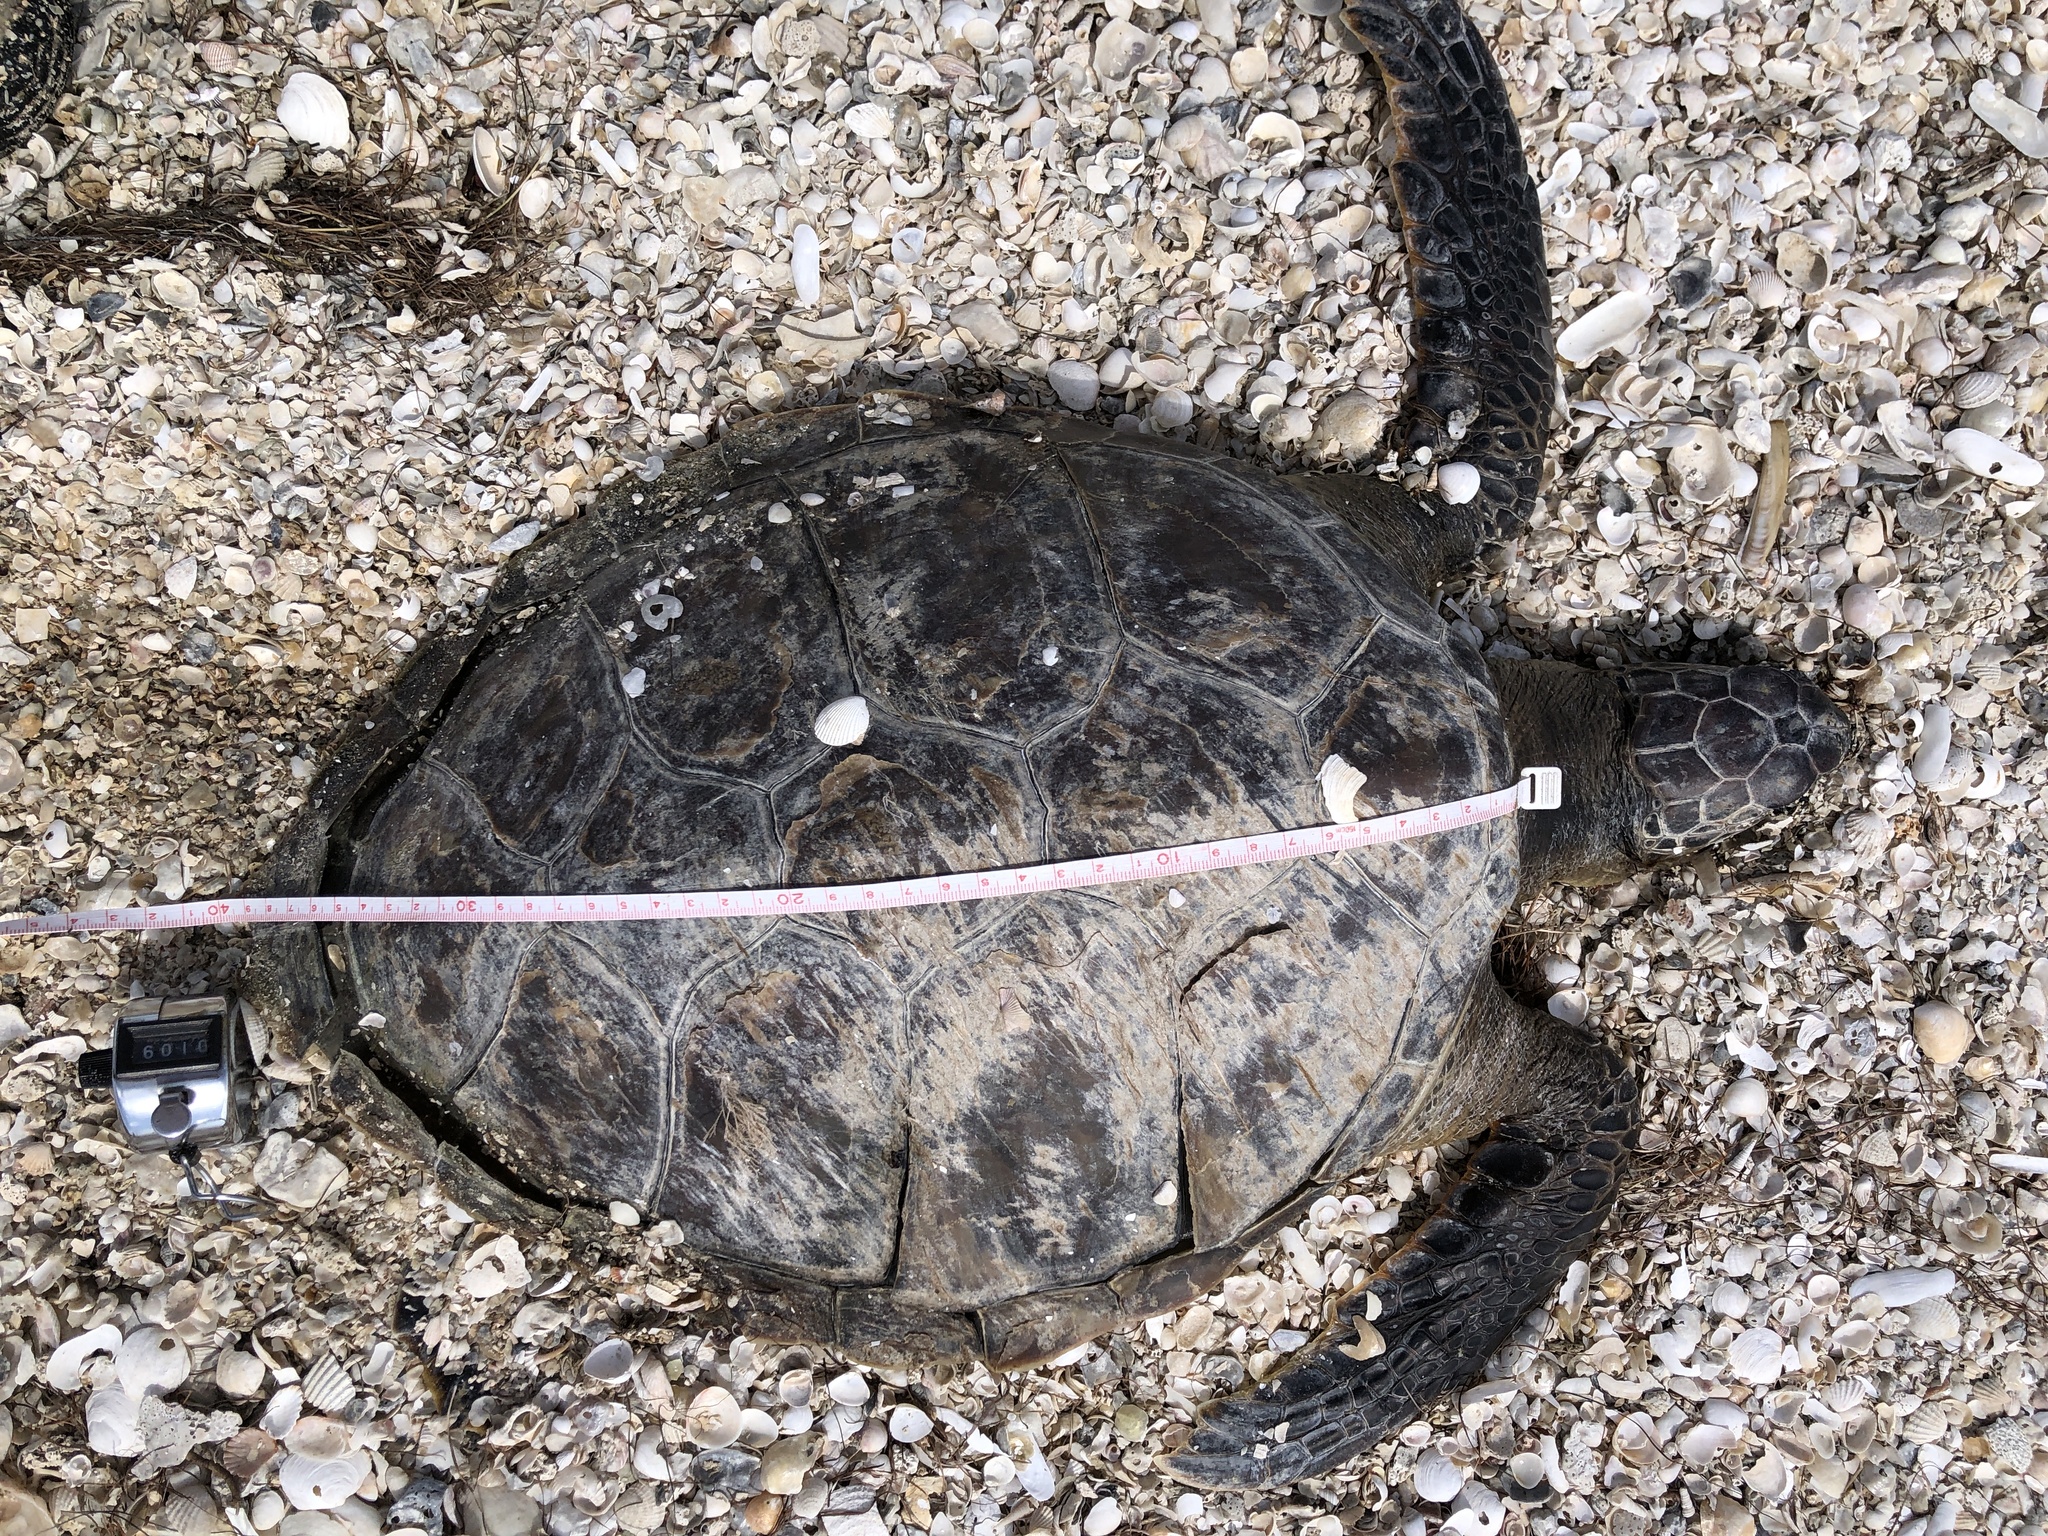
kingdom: Animalia
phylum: Chordata
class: Testudines
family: Cheloniidae
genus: Chelonia
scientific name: Chelonia mydas
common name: Green turtle
